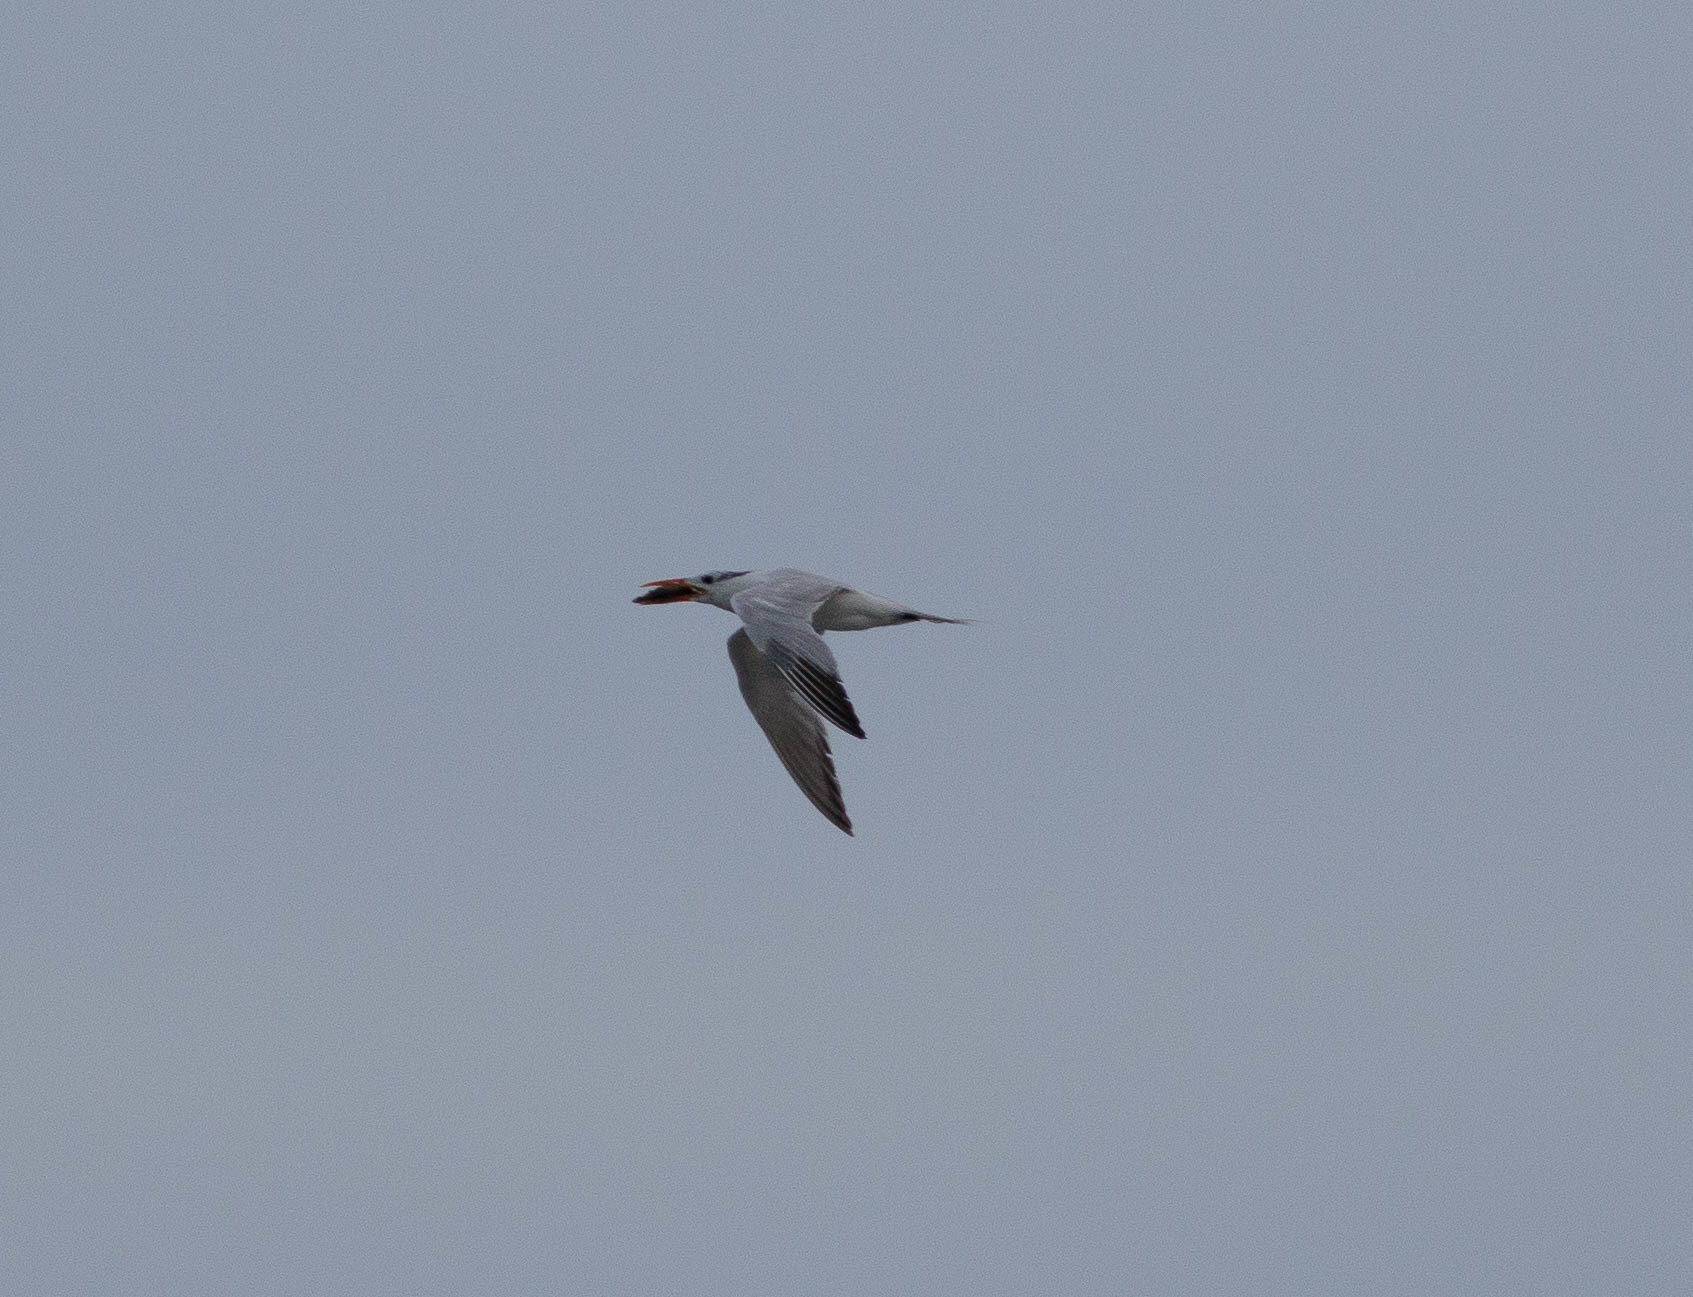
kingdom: Animalia
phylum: Chordata
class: Aves
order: Charadriiformes
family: Laridae
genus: Thalasseus
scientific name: Thalasseus maximus
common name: Royal tern
